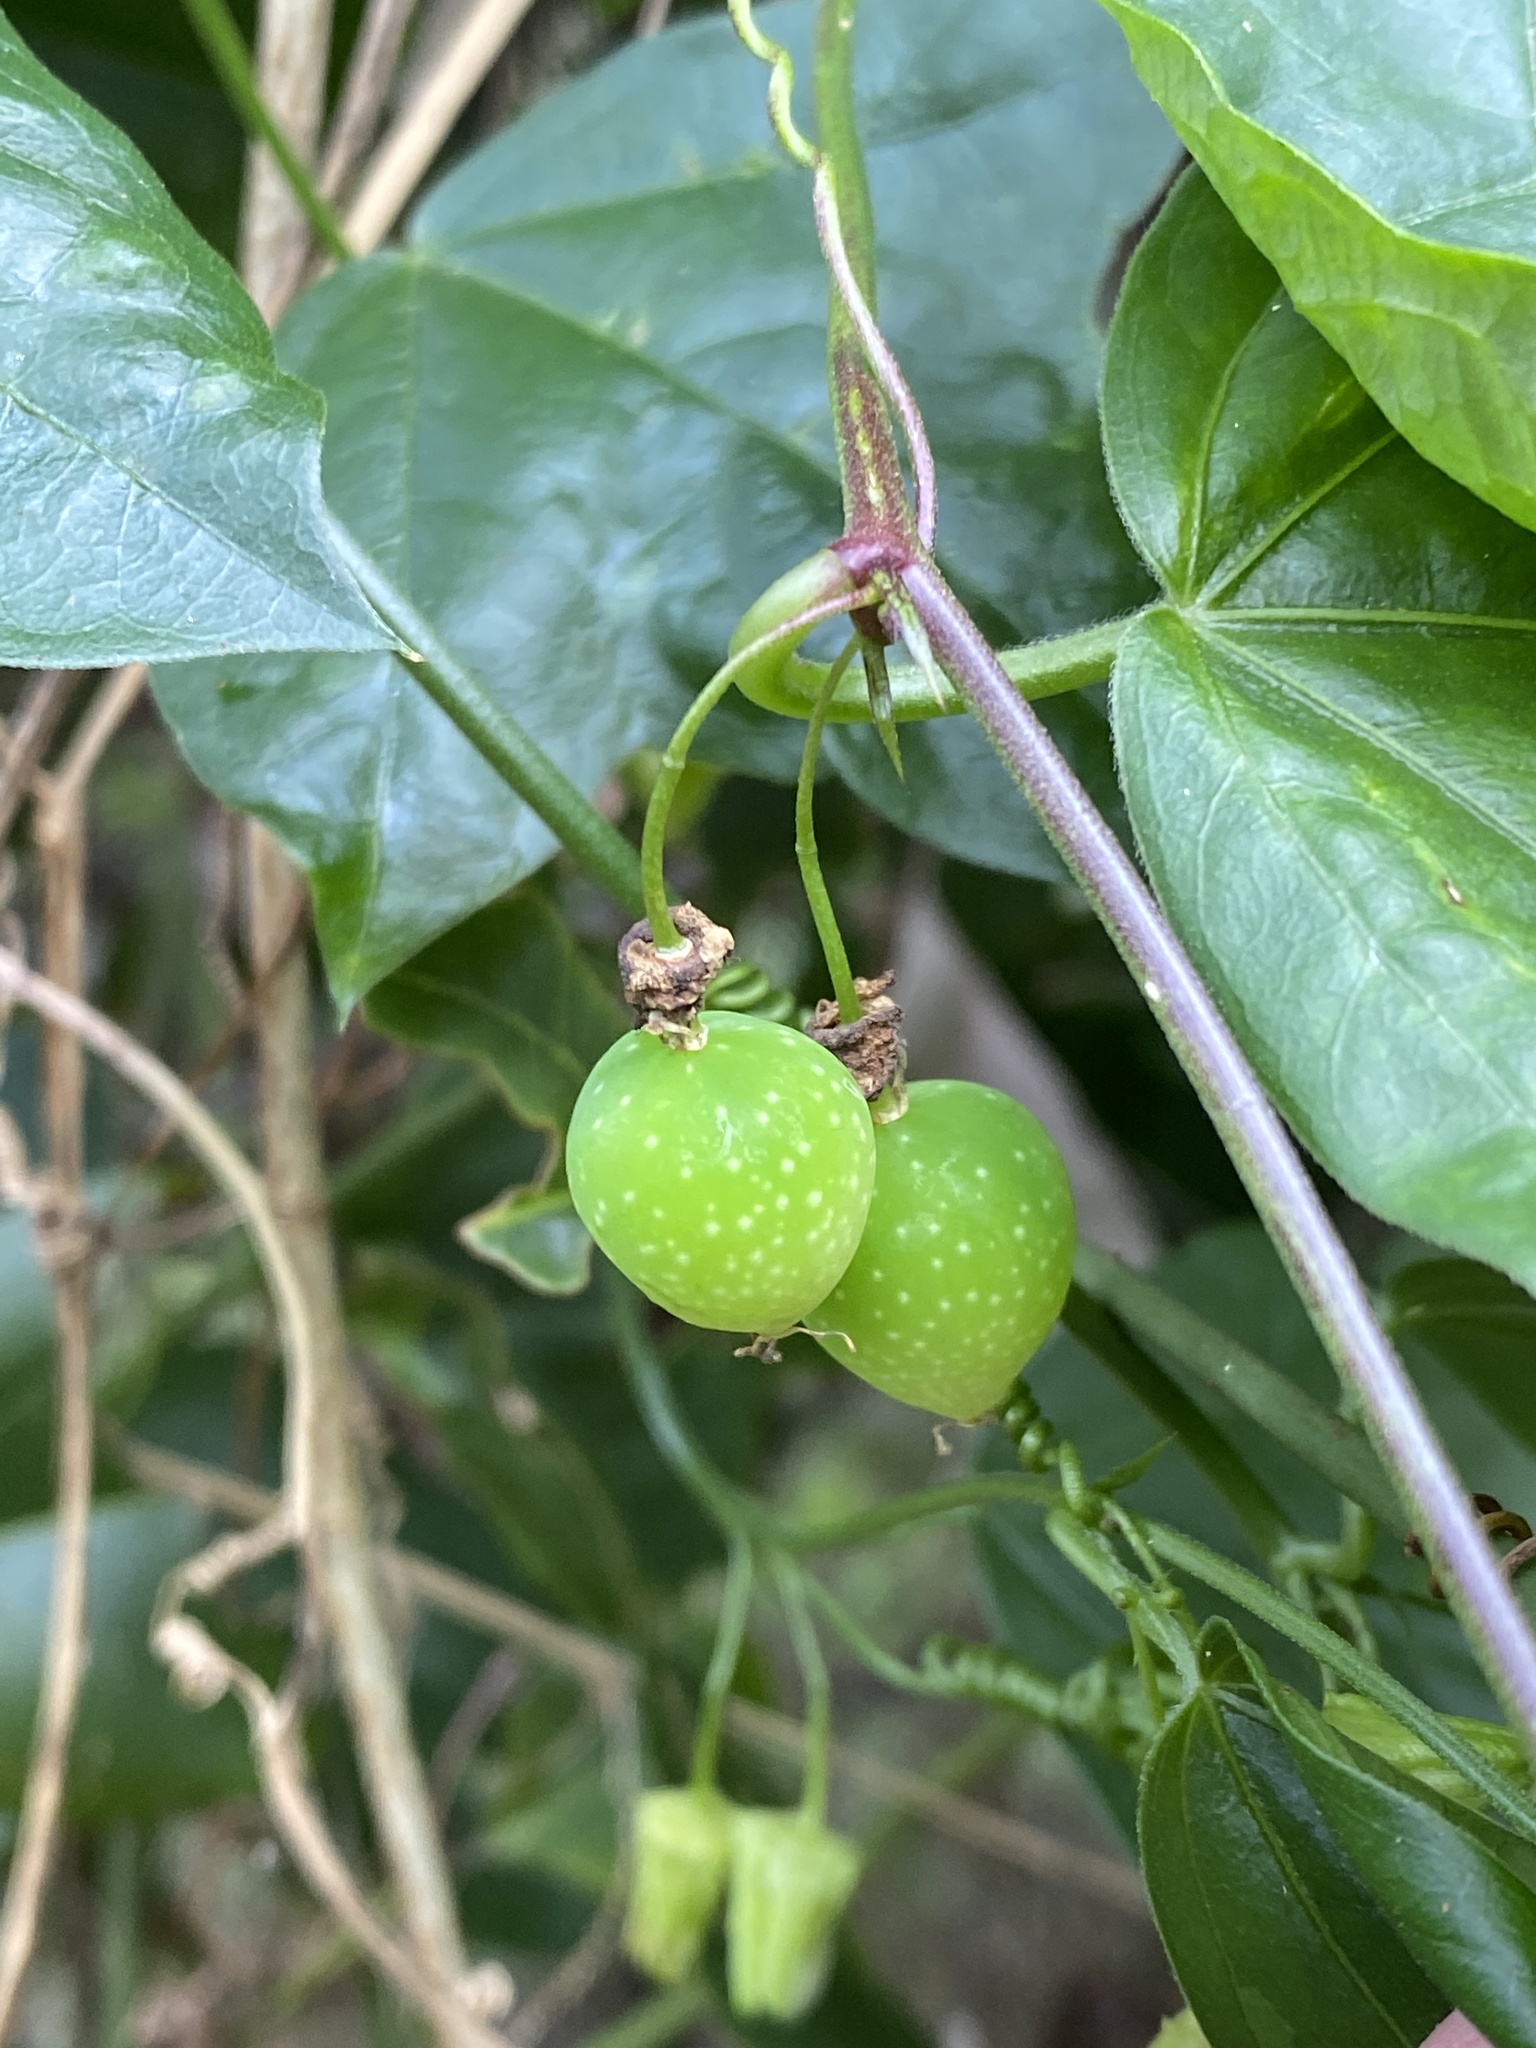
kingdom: Plantae
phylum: Tracheophyta
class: Magnoliopsida
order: Malpighiales
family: Passifloraceae
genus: Passiflora
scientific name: Passiflora suberosa
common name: Wild passionfruit
